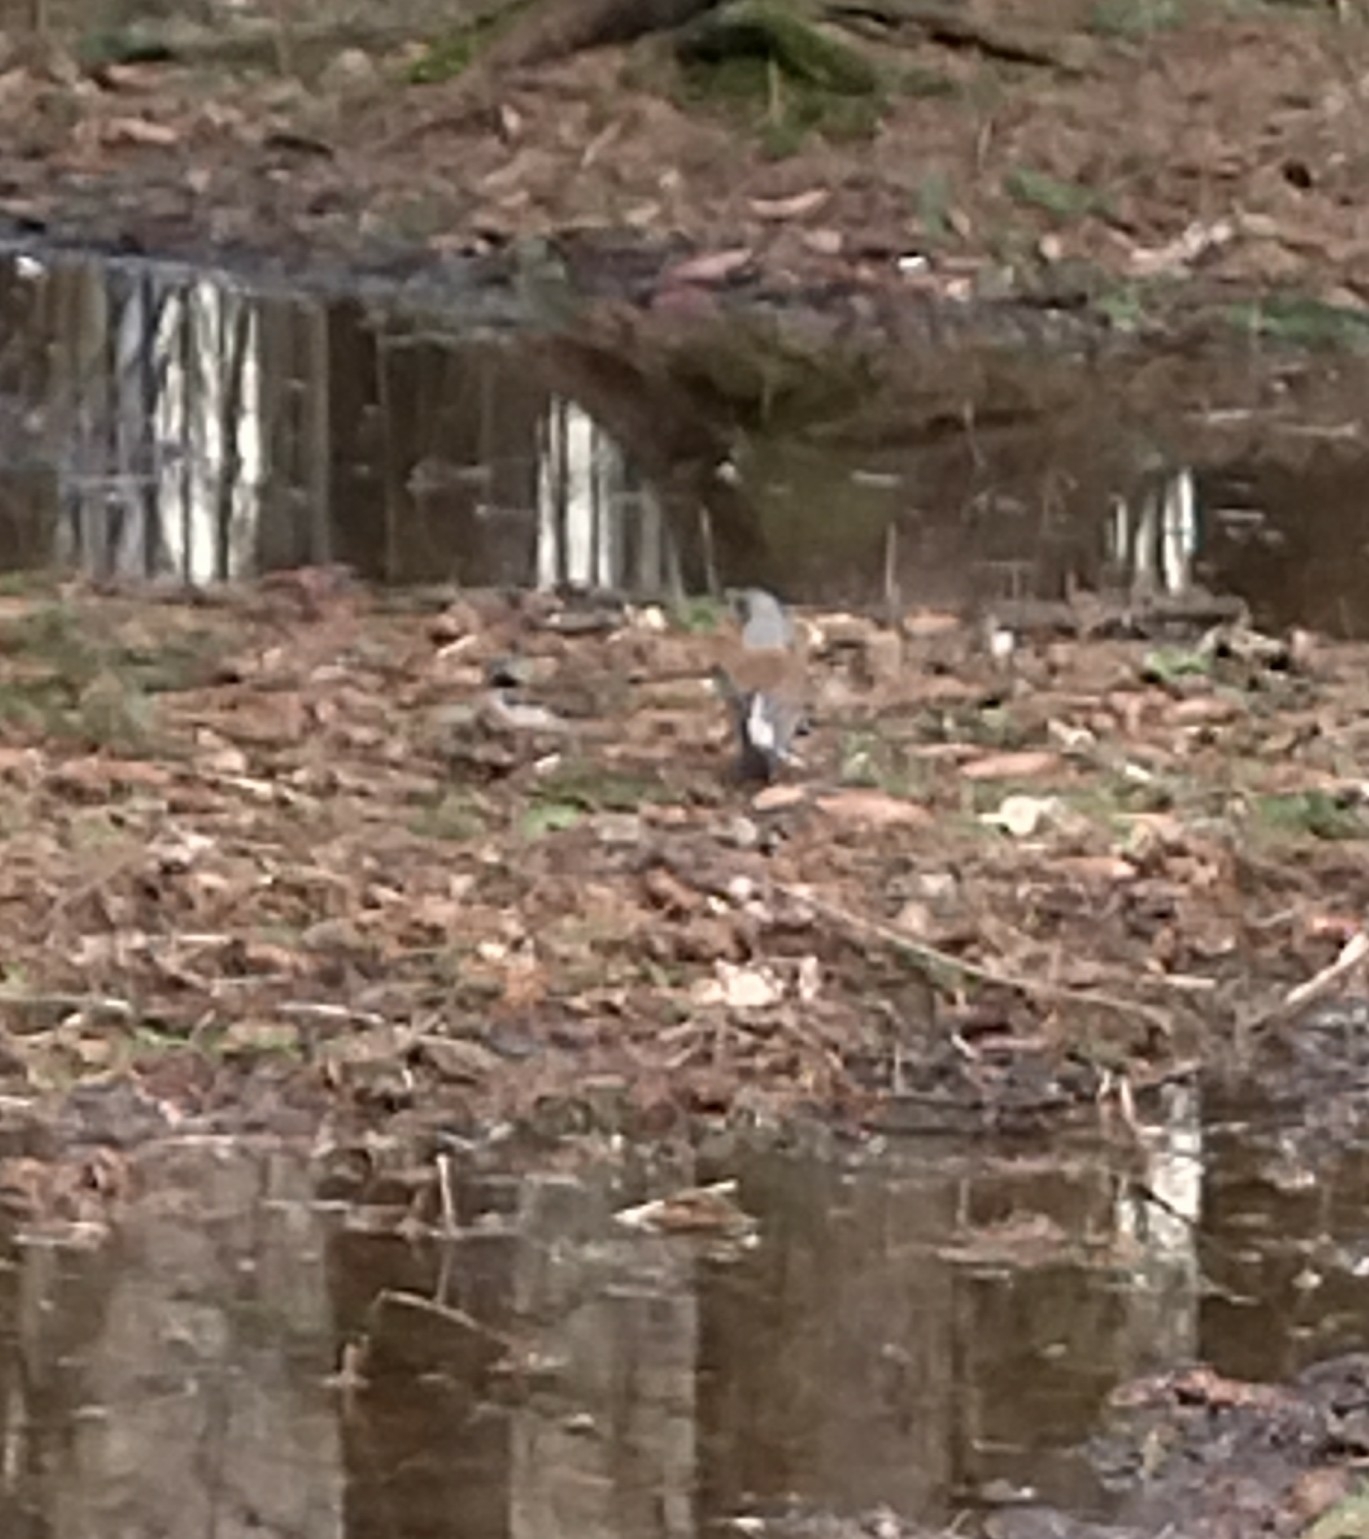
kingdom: Animalia
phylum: Chordata
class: Aves
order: Passeriformes
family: Turdidae
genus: Turdus
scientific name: Turdus pilaris
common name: Fieldfare
